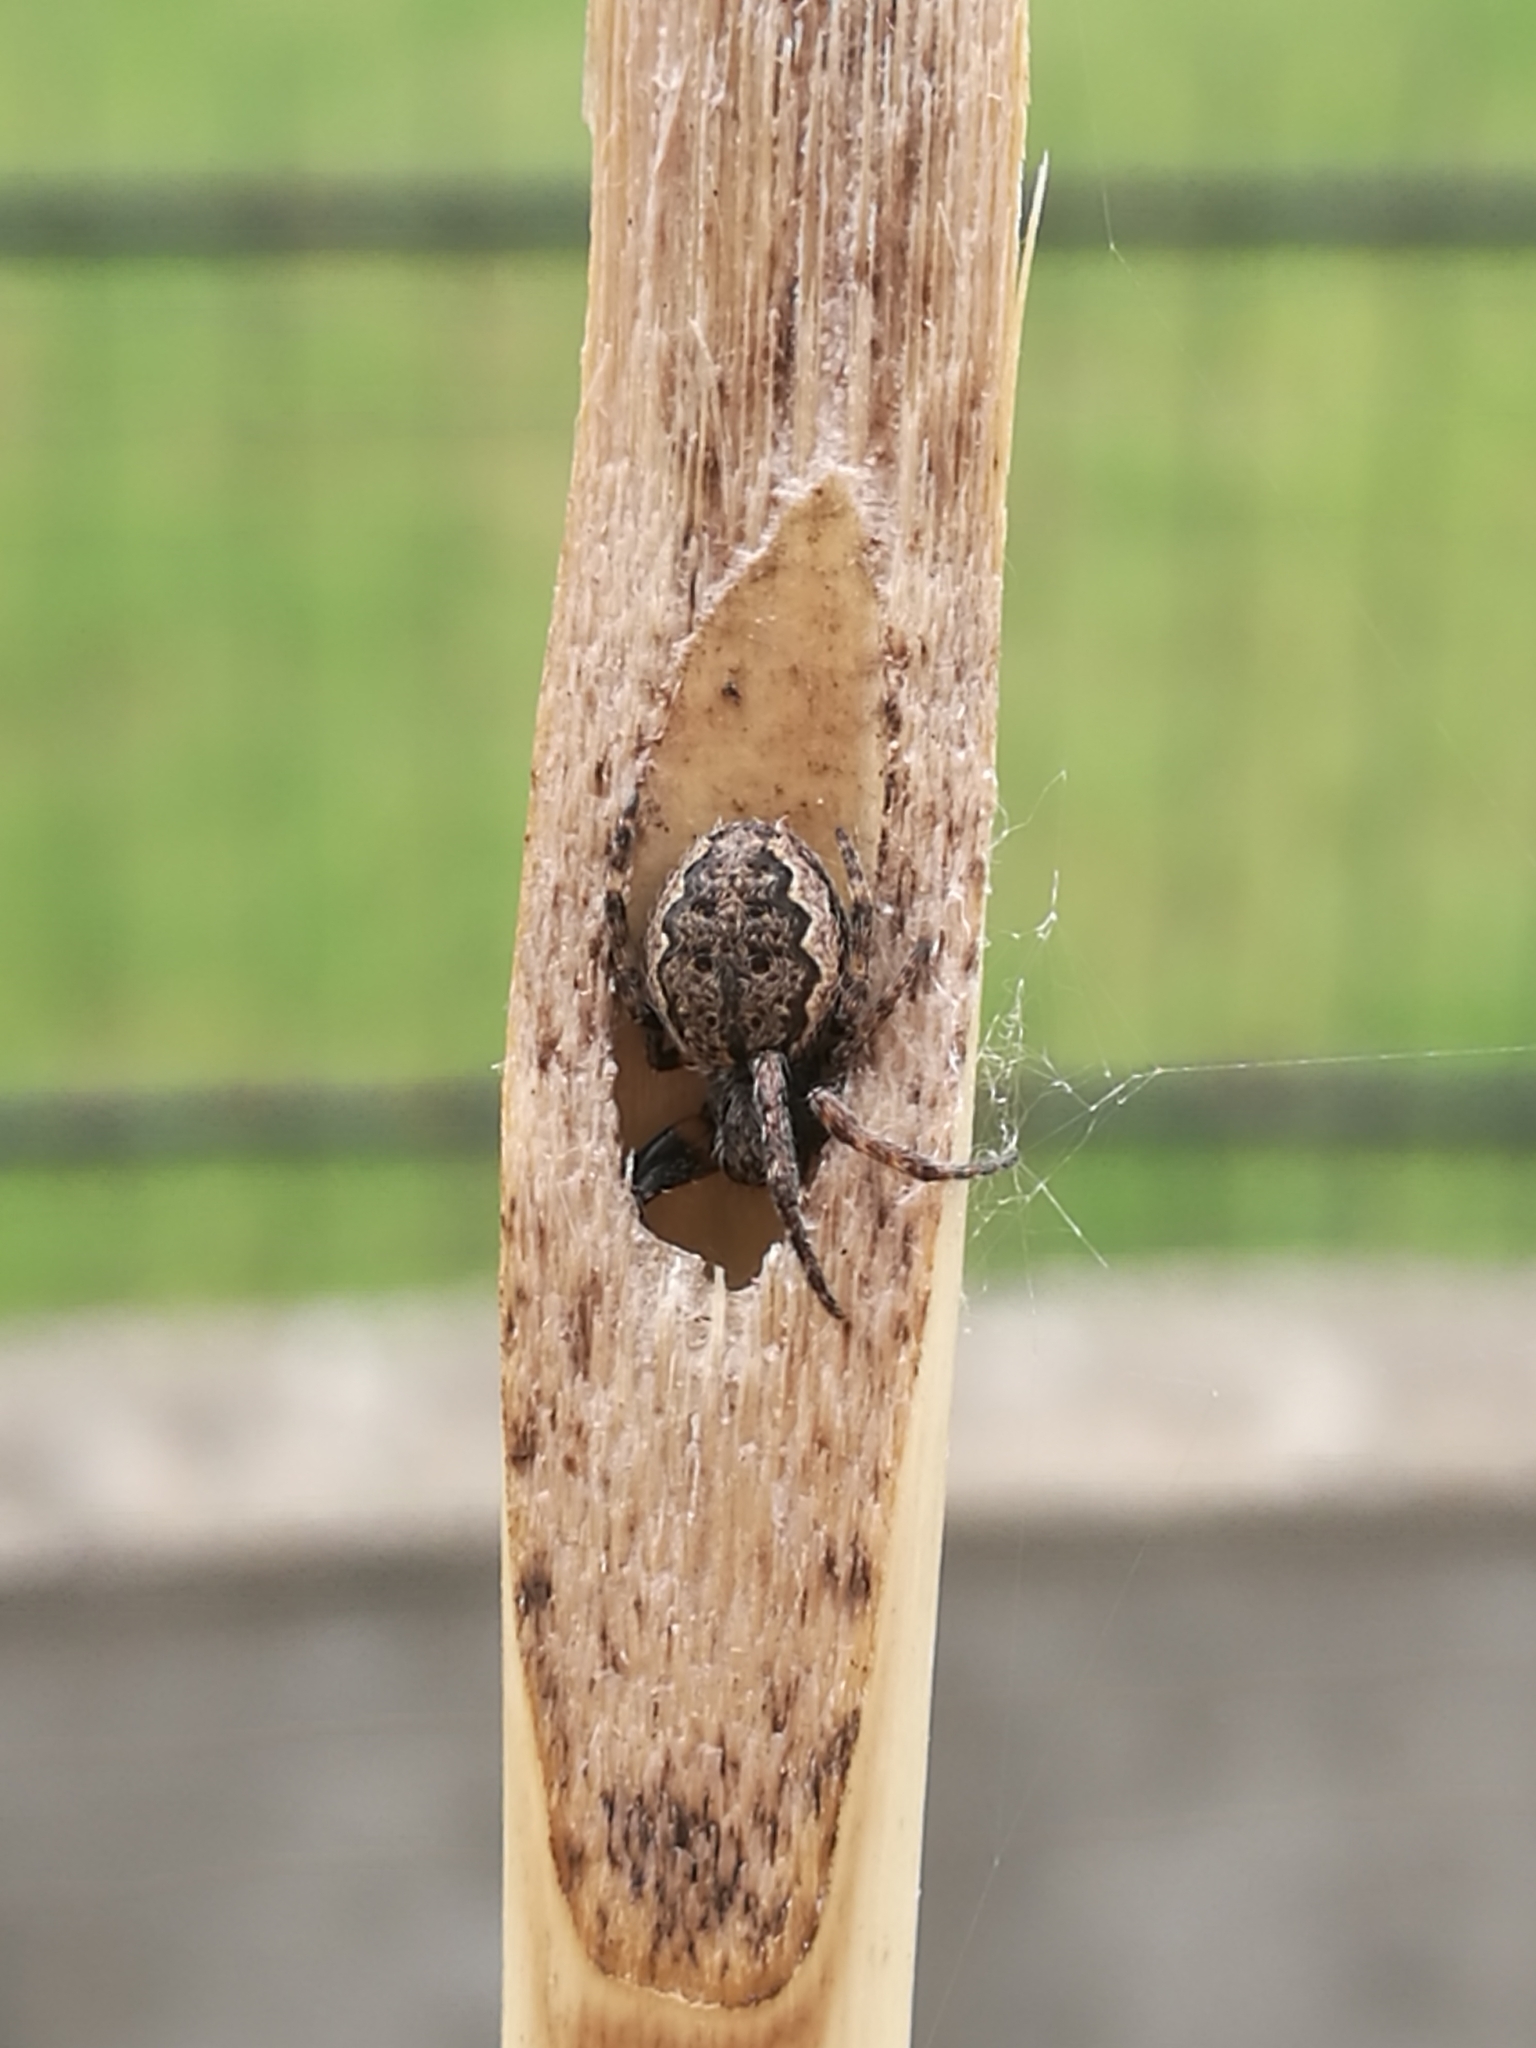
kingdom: Animalia
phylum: Arthropoda
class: Arachnida
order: Araneae
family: Araneidae
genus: Nuctenea
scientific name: Nuctenea umbratica
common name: Toad spider
